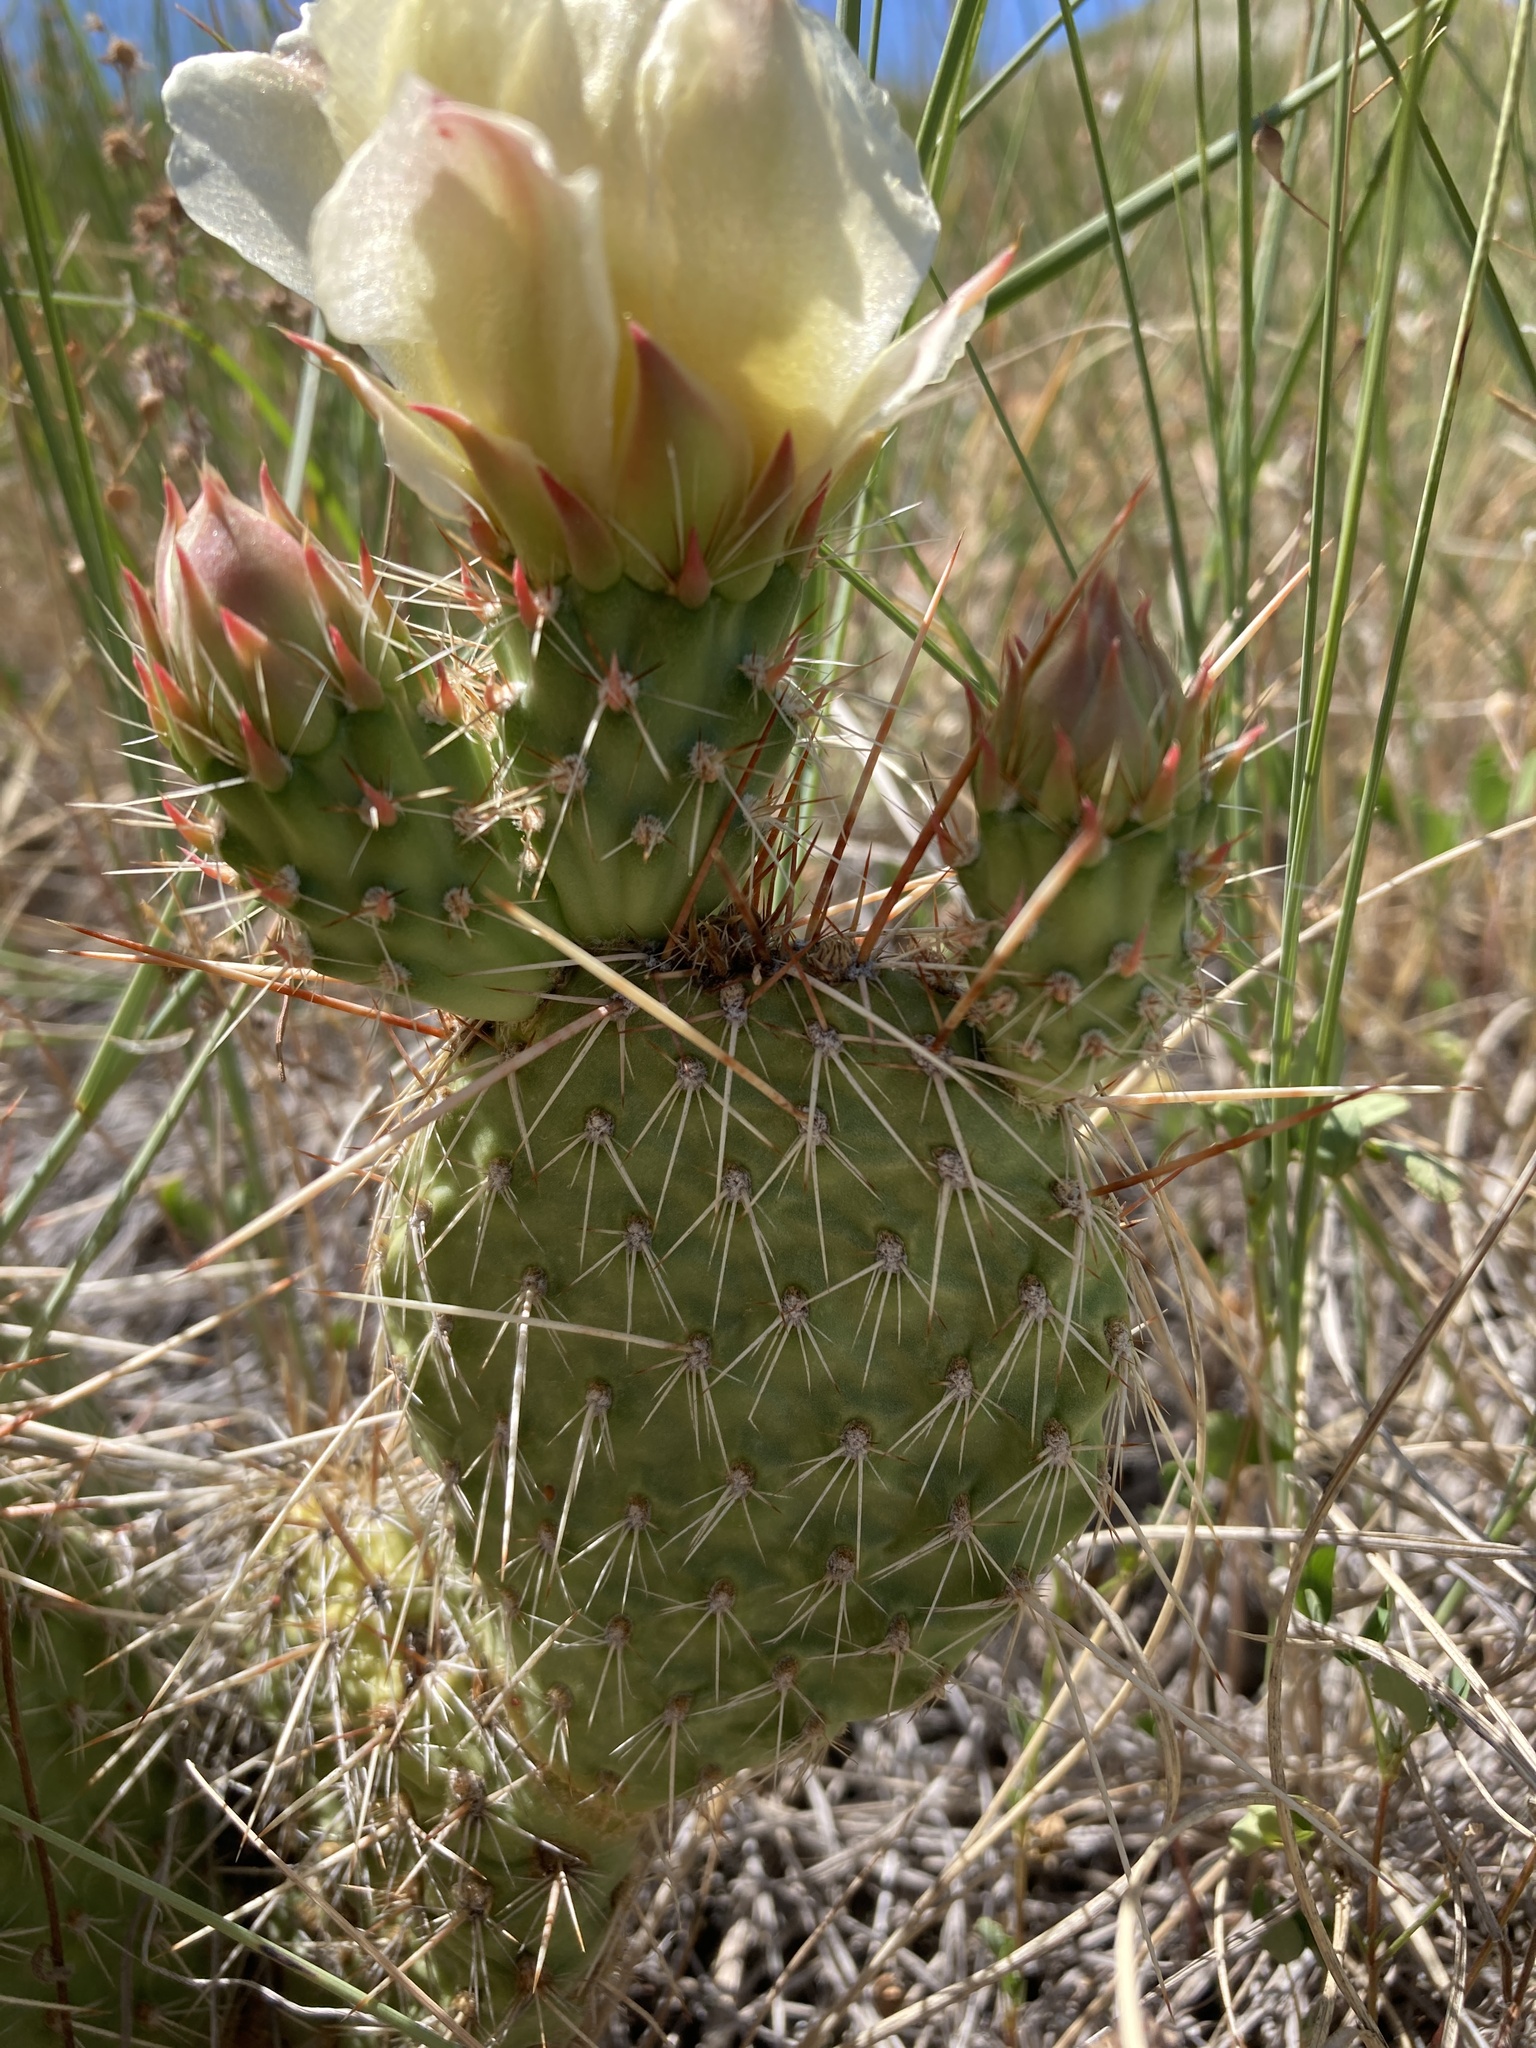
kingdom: Plantae
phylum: Tracheophyta
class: Magnoliopsida
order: Caryophyllales
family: Cactaceae
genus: Opuntia
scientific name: Opuntia polyacantha
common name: Plains prickly-pear
